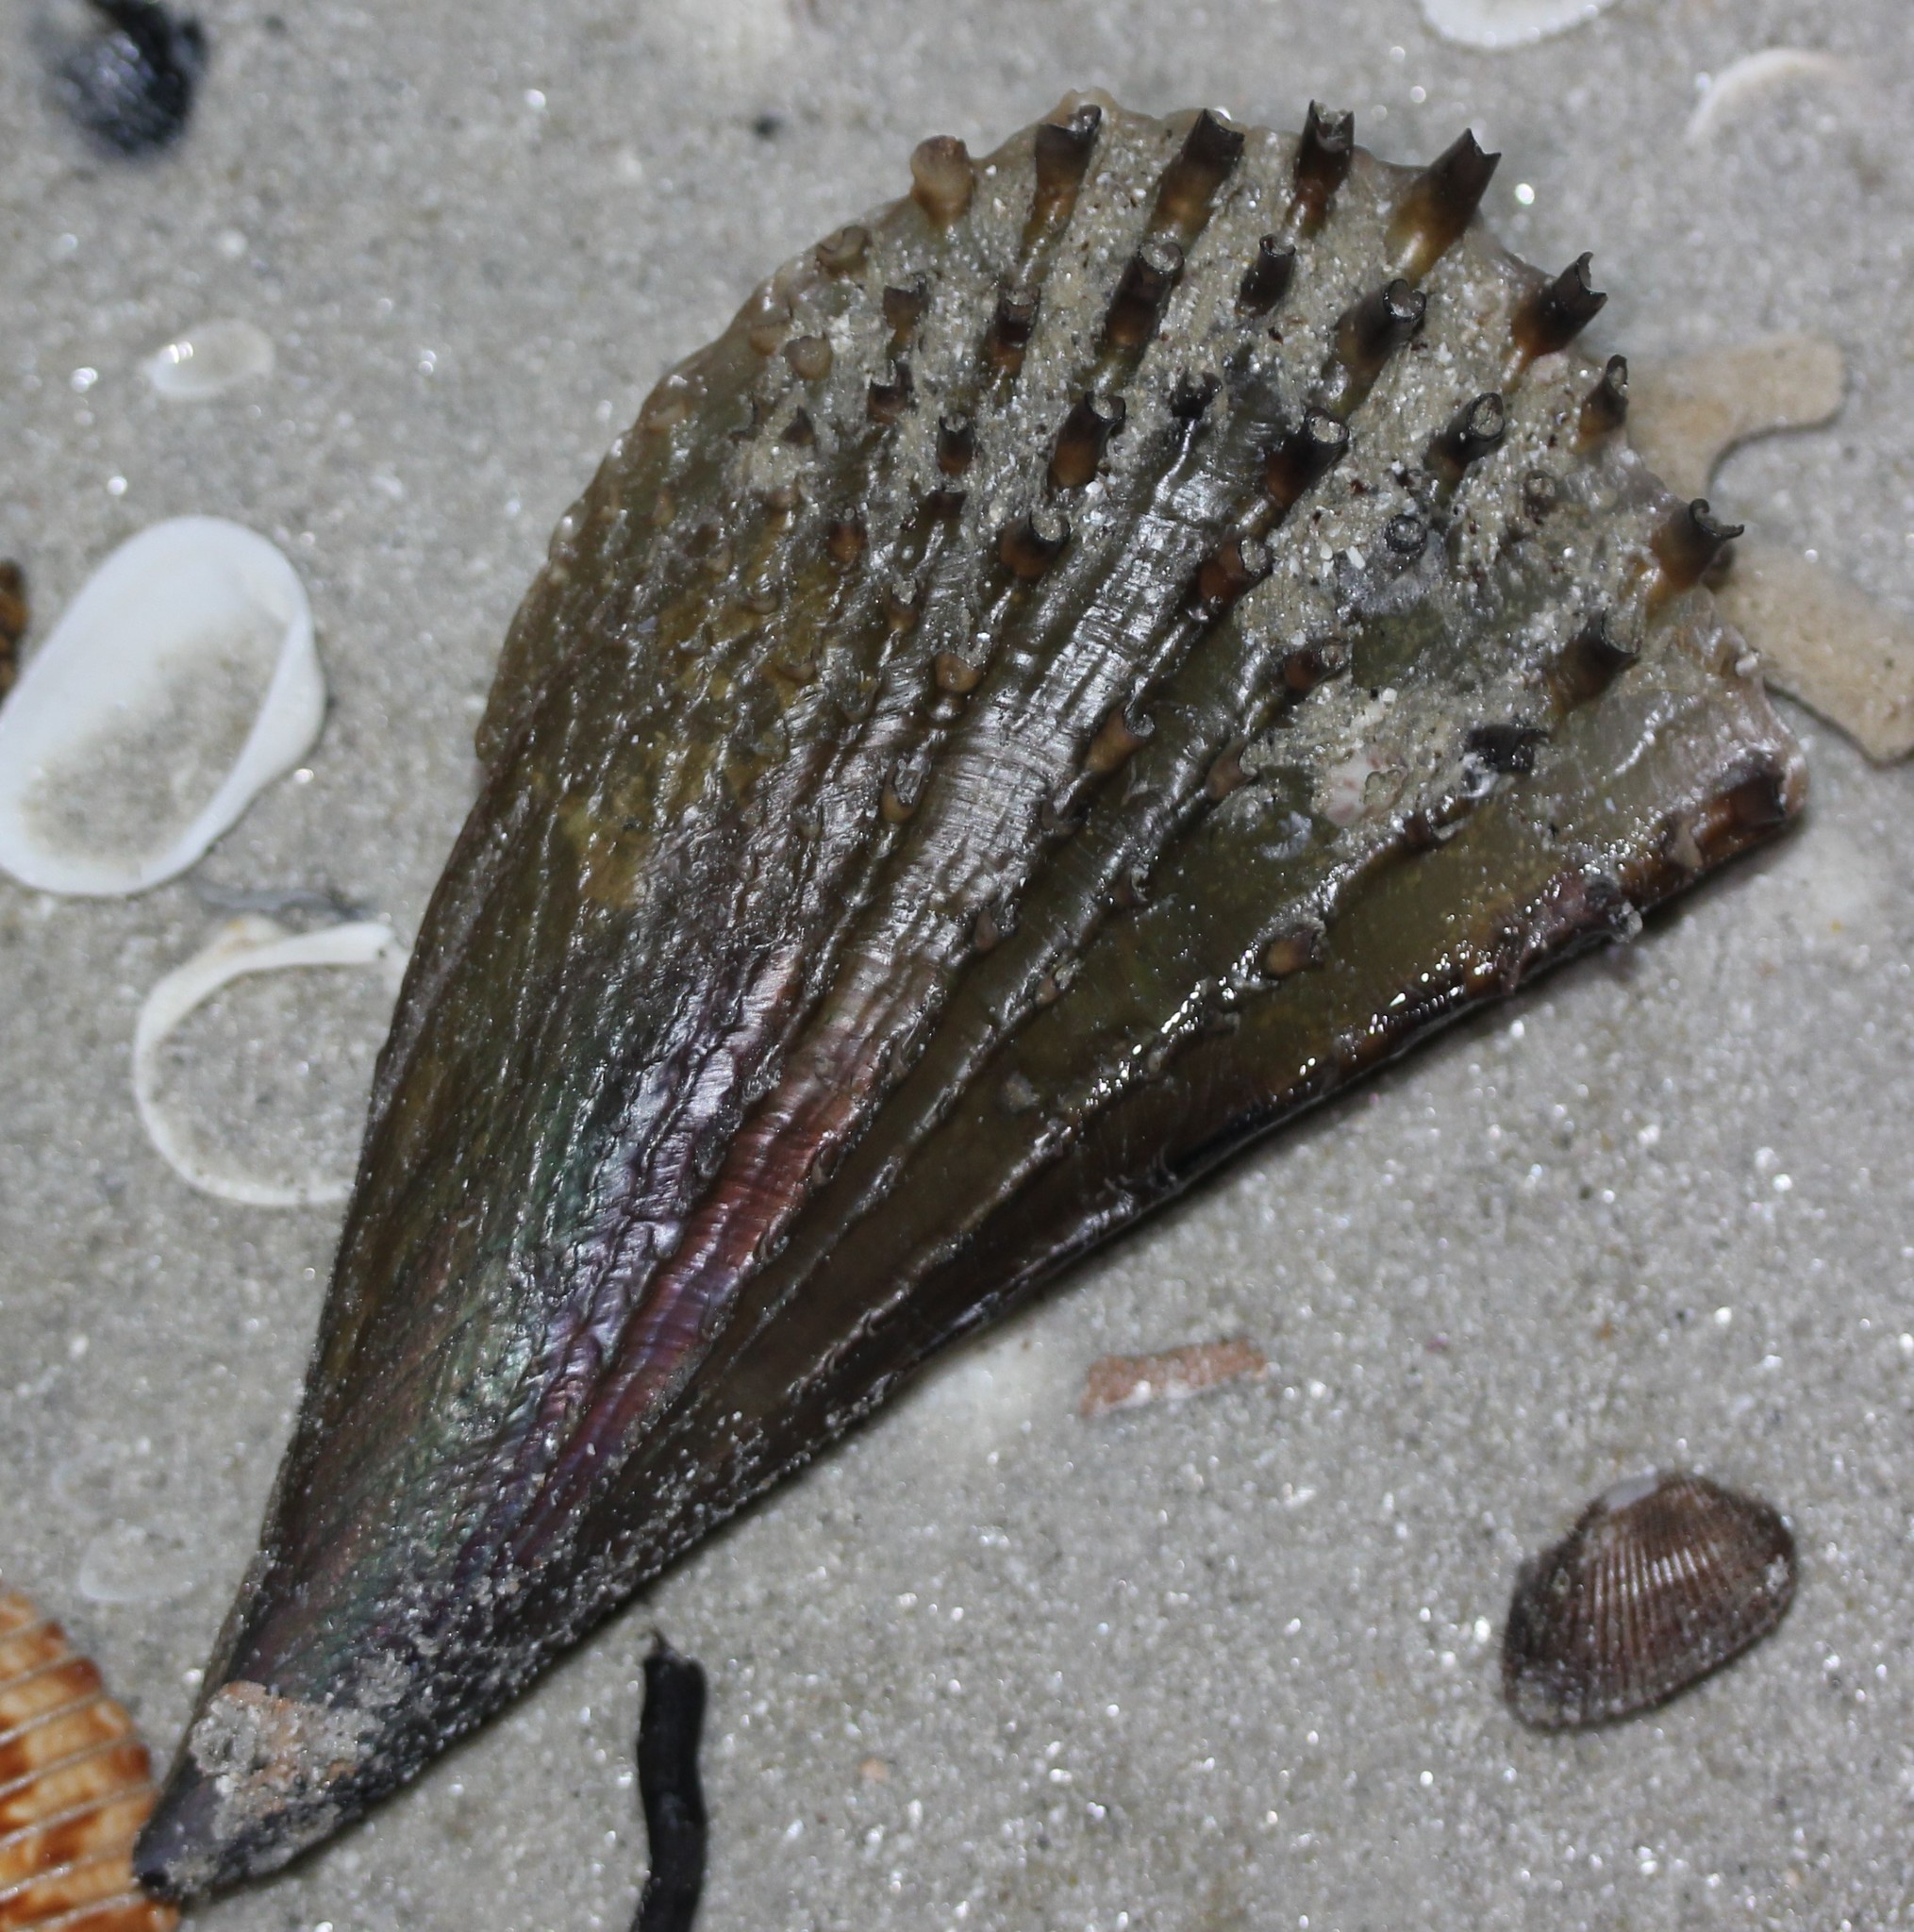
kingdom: Animalia
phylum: Mollusca
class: Bivalvia
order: Ostreida
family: Pinnidae
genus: Atrina
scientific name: Atrina rigida
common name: Stiff penshell
